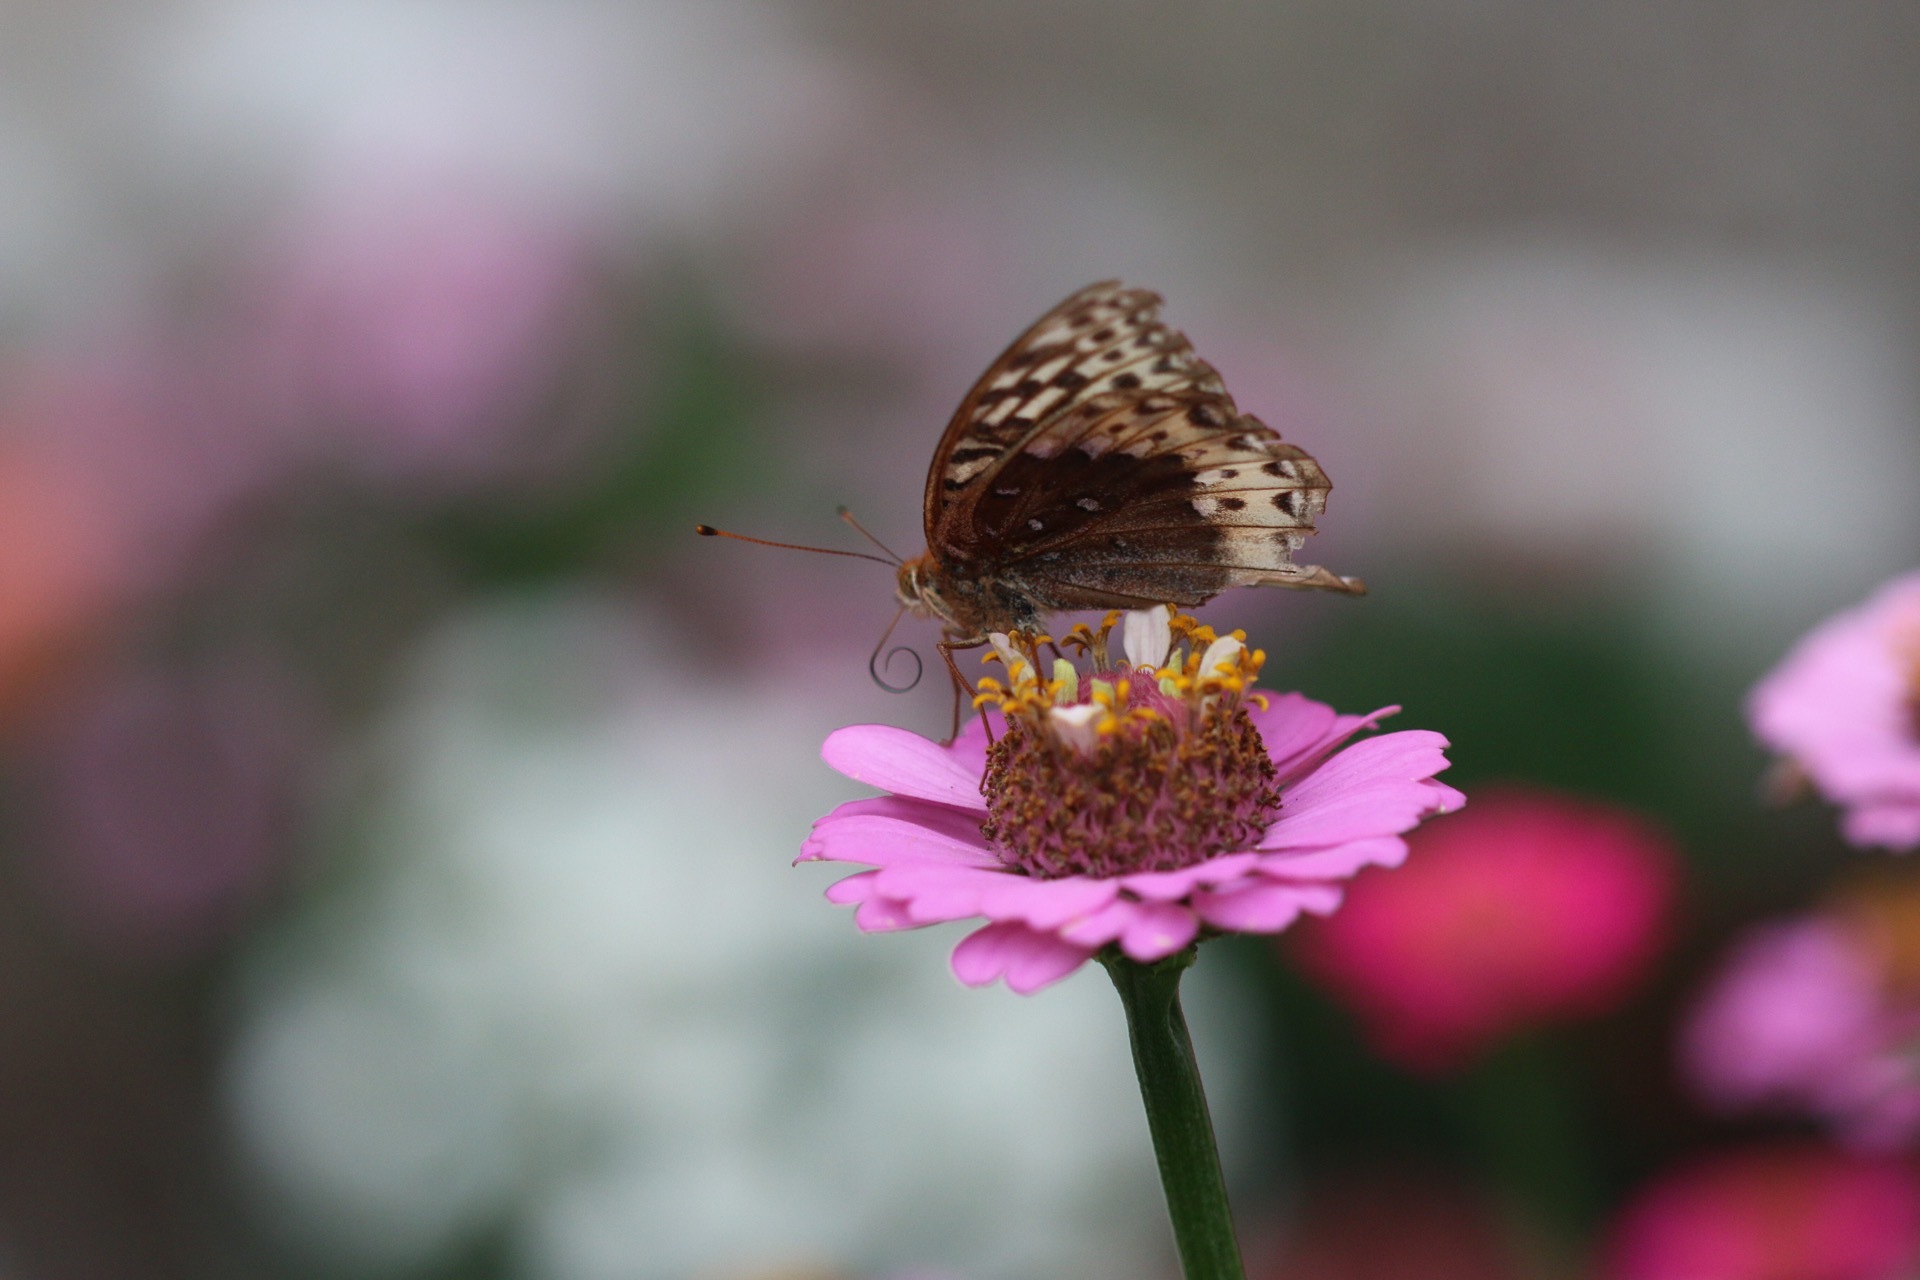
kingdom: Animalia
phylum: Arthropoda
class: Insecta
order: Lepidoptera
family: Nymphalidae
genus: Speyeria
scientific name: Speyeria cybele
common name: Great spangled fritillary
